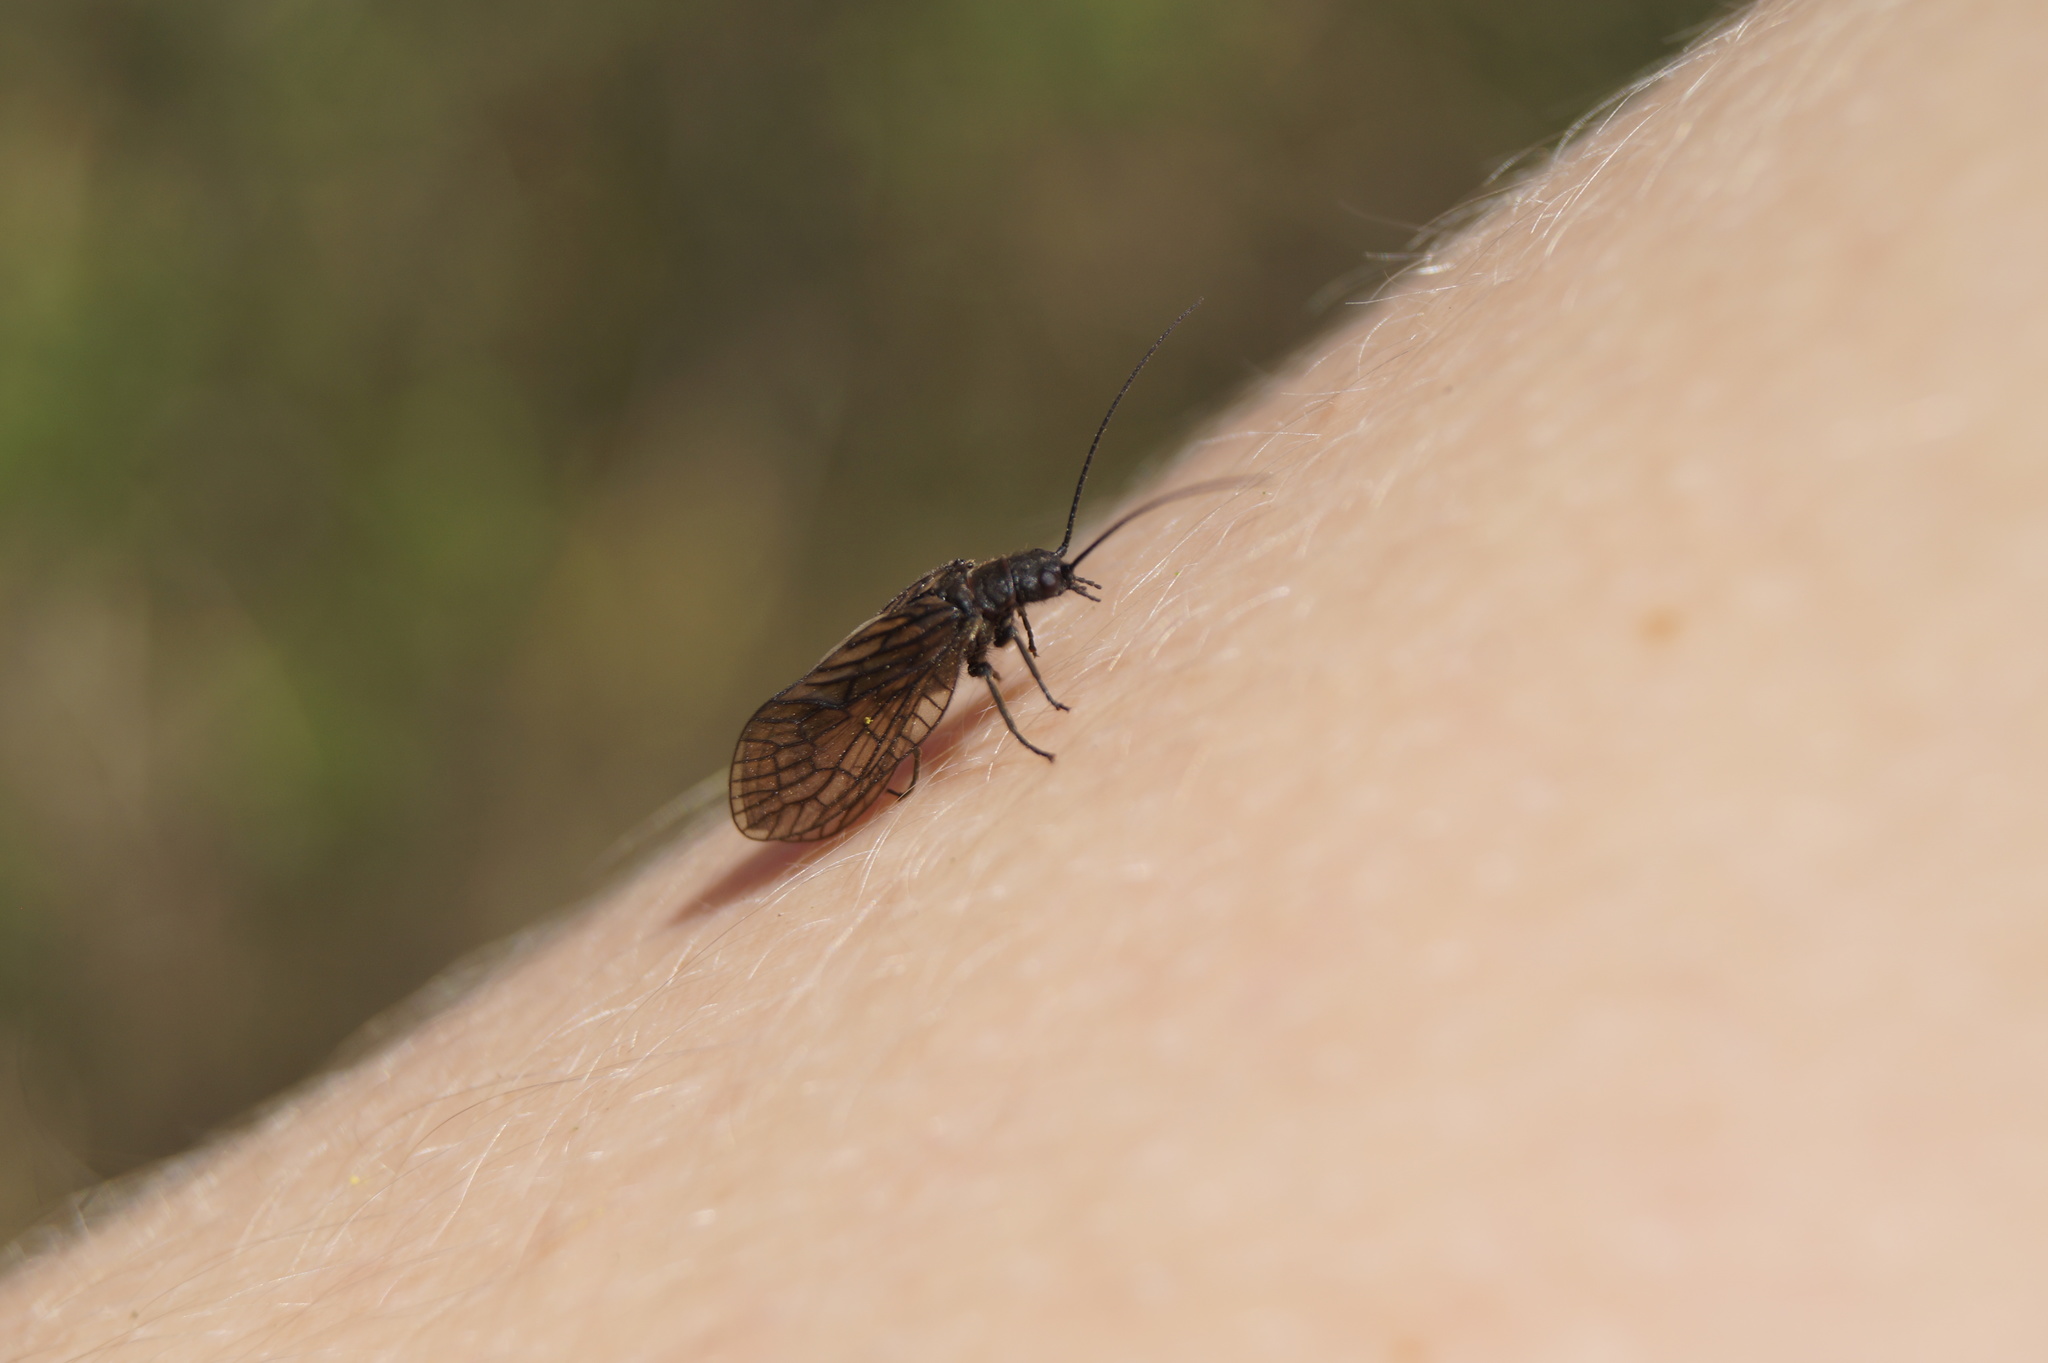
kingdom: Animalia
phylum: Arthropoda
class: Insecta
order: Megaloptera
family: Sialidae
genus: Sialis
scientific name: Sialis
